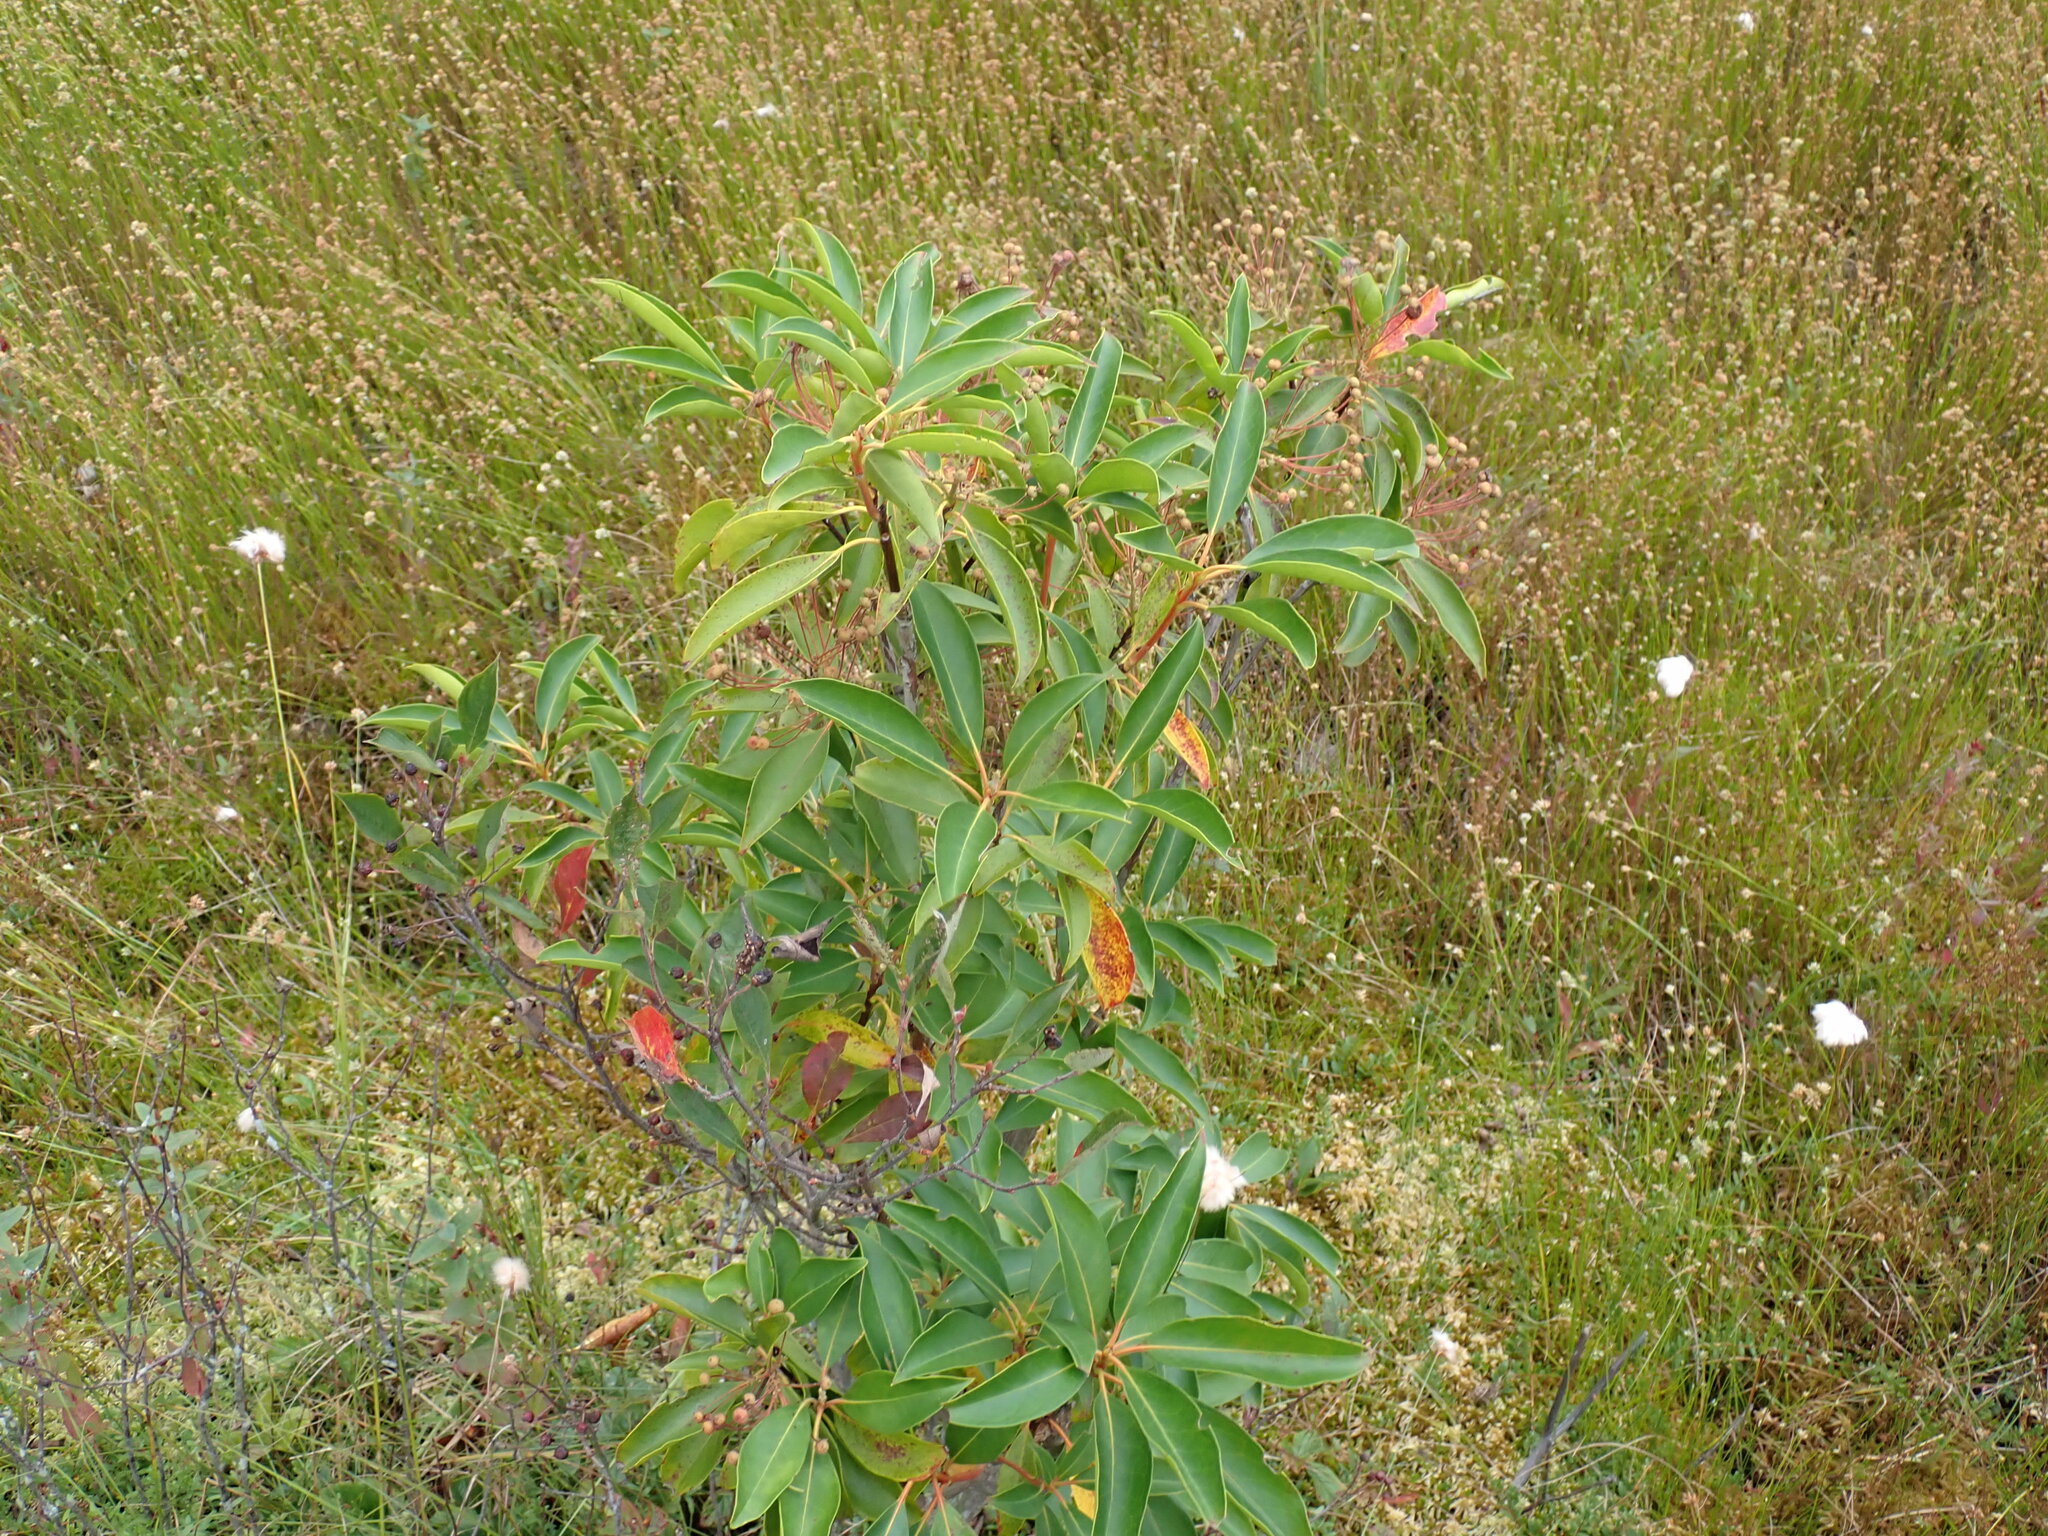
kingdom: Plantae
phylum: Tracheophyta
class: Magnoliopsida
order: Ericales
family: Ericaceae
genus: Kalmia
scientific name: Kalmia latifolia
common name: Mountain-laurel
